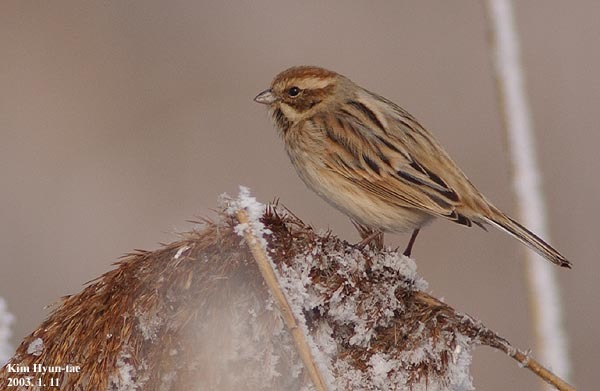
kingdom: Animalia
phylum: Chordata
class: Aves
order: Passeriformes
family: Emberizidae
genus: Emberiza
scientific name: Emberiza schoeniclus
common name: Reed bunting
